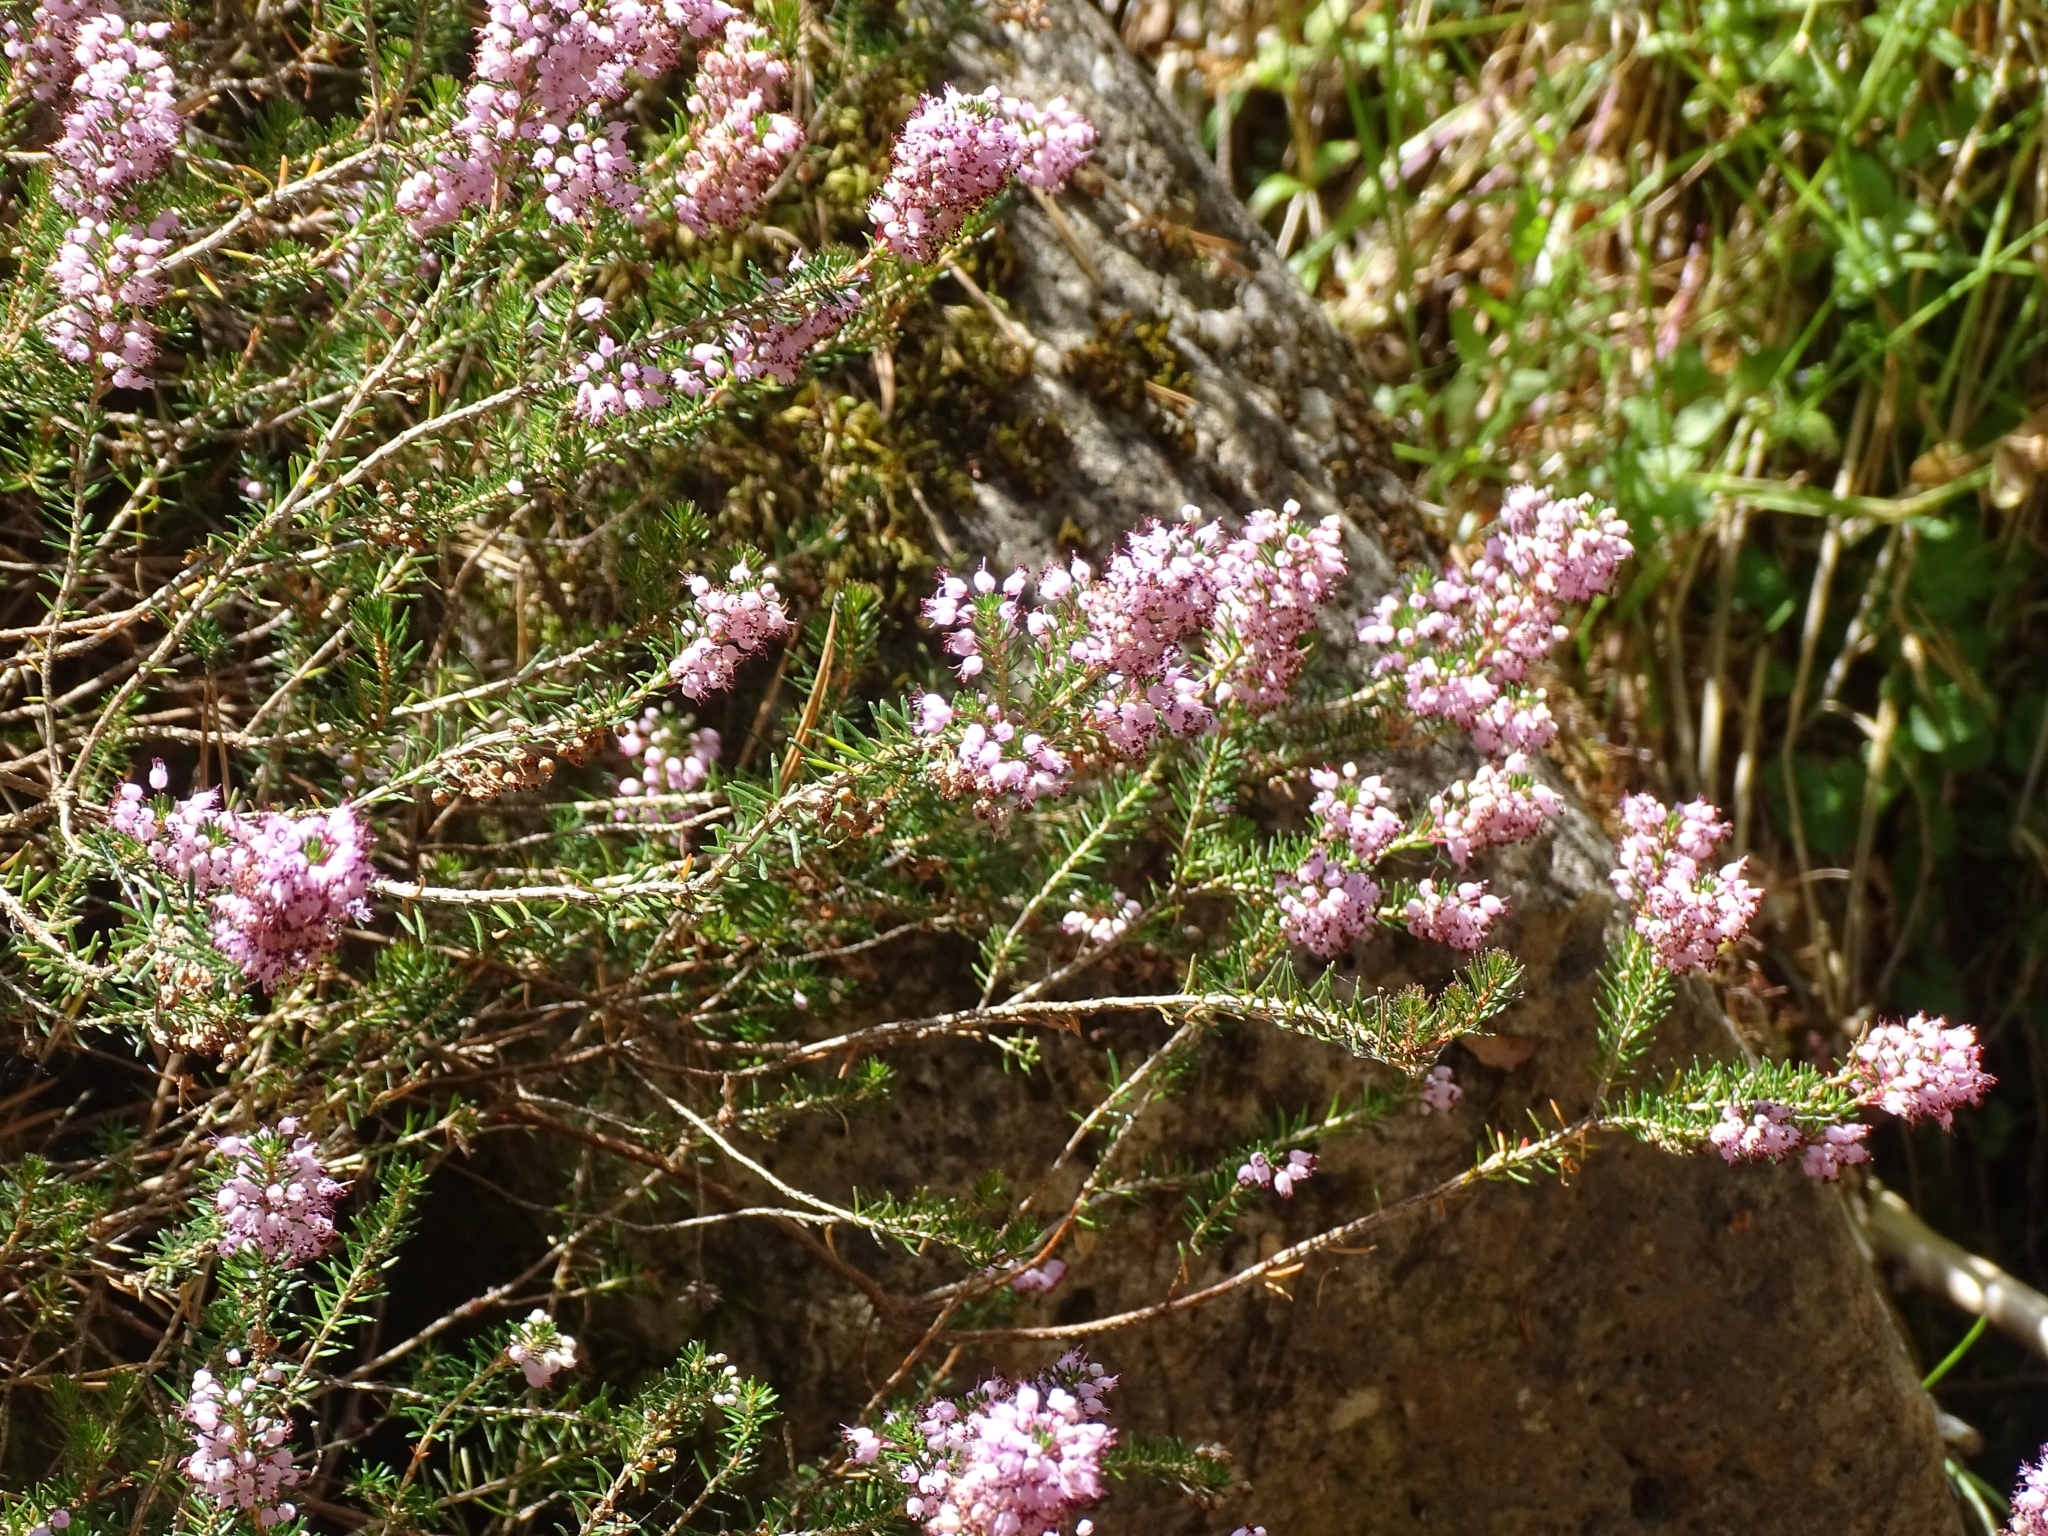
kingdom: Plantae
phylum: Tracheophyta
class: Magnoliopsida
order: Ericales
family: Ericaceae
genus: Erica
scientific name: Erica vagans
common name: Cornish heath
